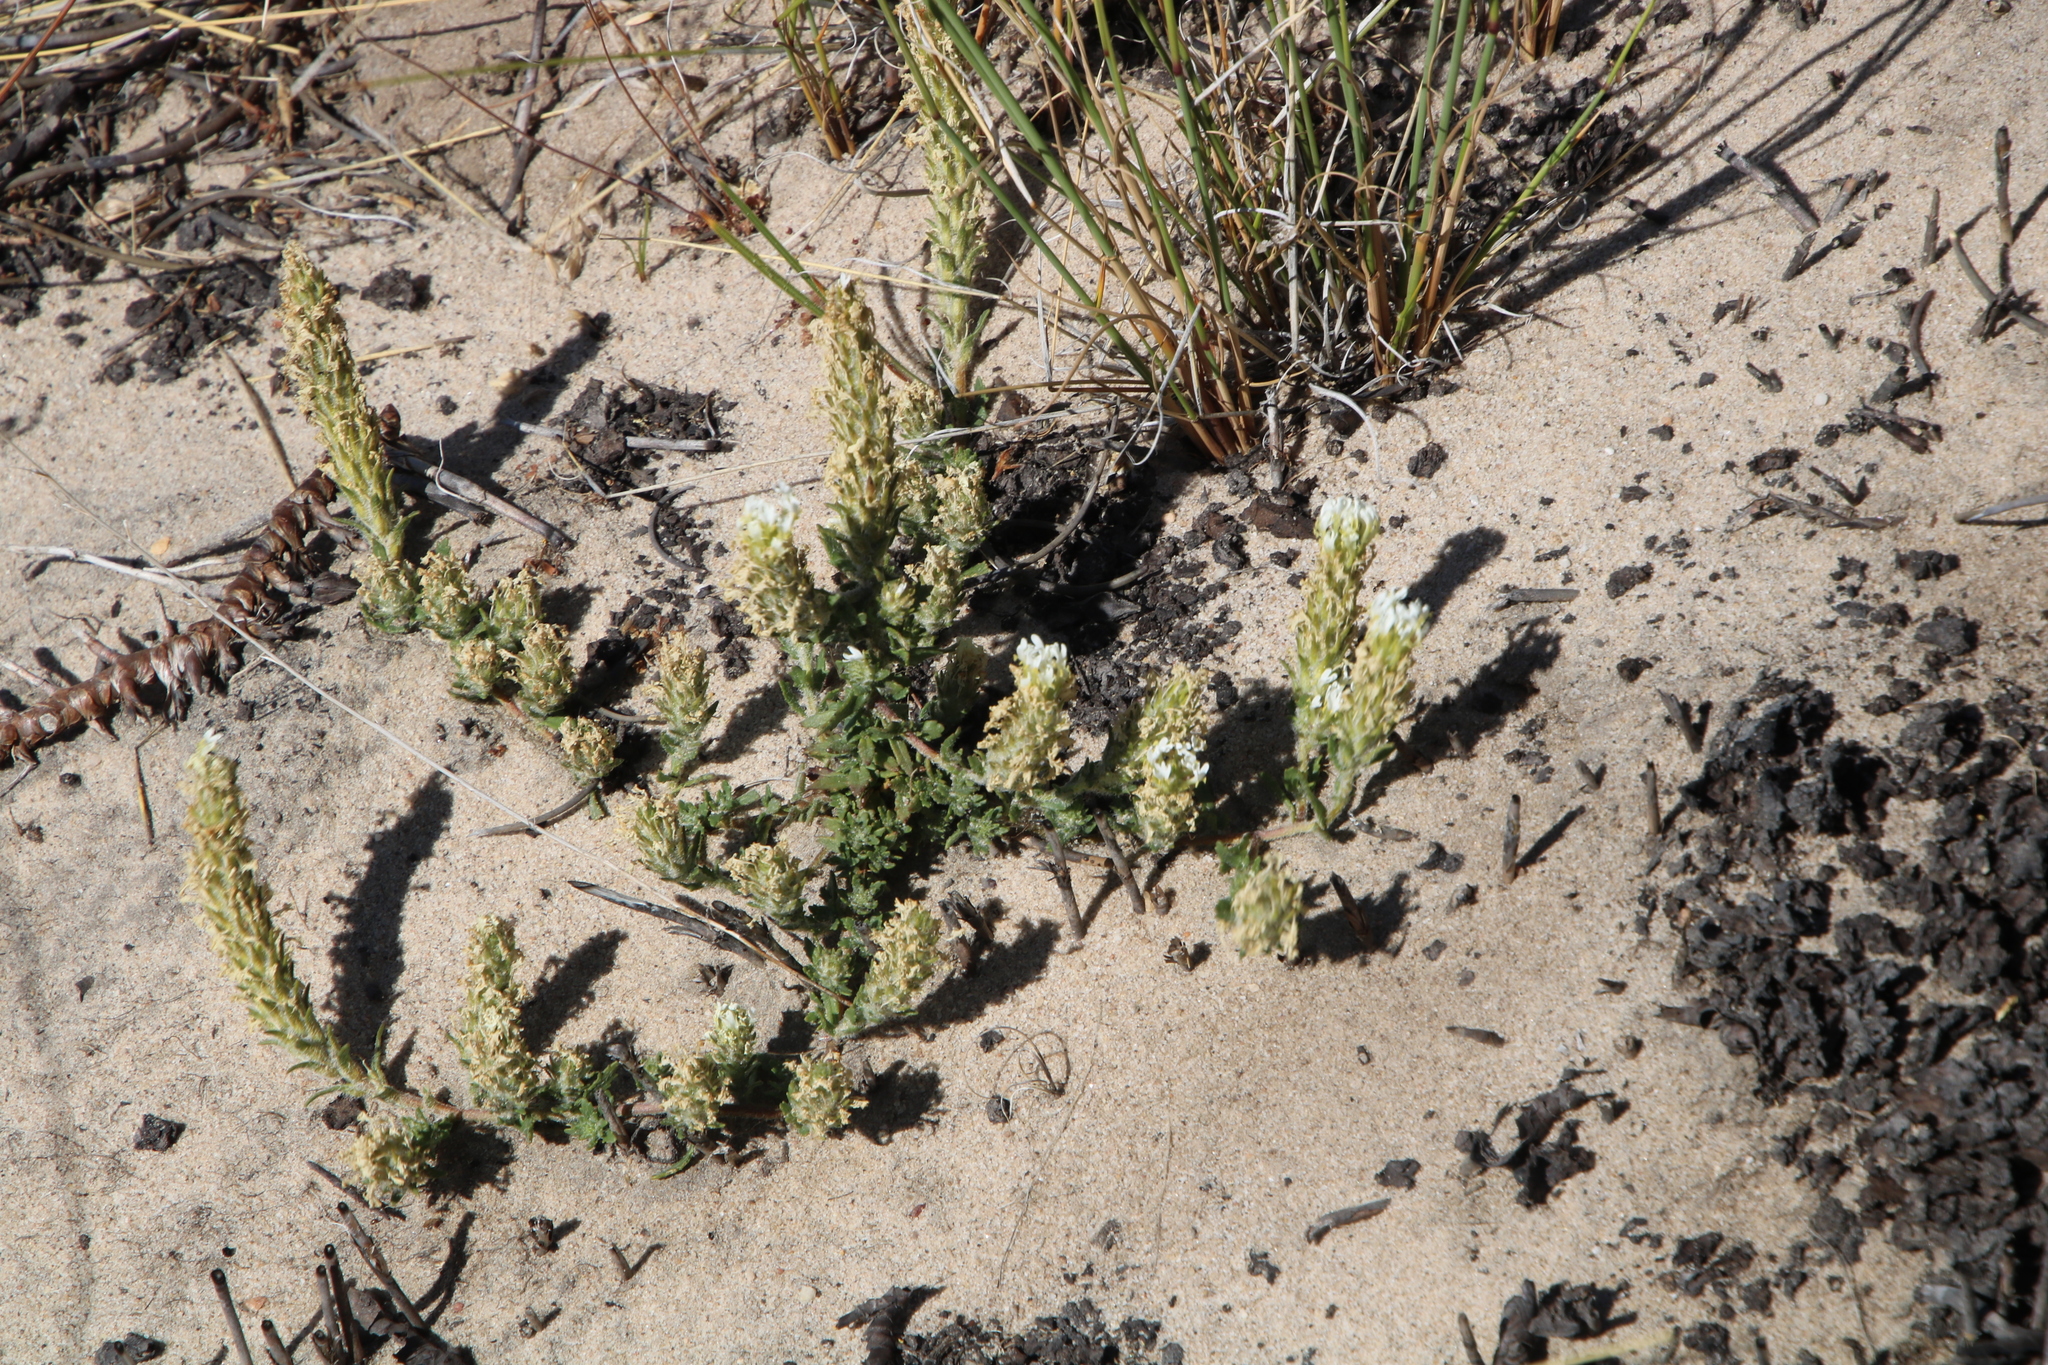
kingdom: Plantae
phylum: Tracheophyta
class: Magnoliopsida
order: Lamiales
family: Scrophulariaceae
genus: Hebenstretia
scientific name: Hebenstretia lanceolata
